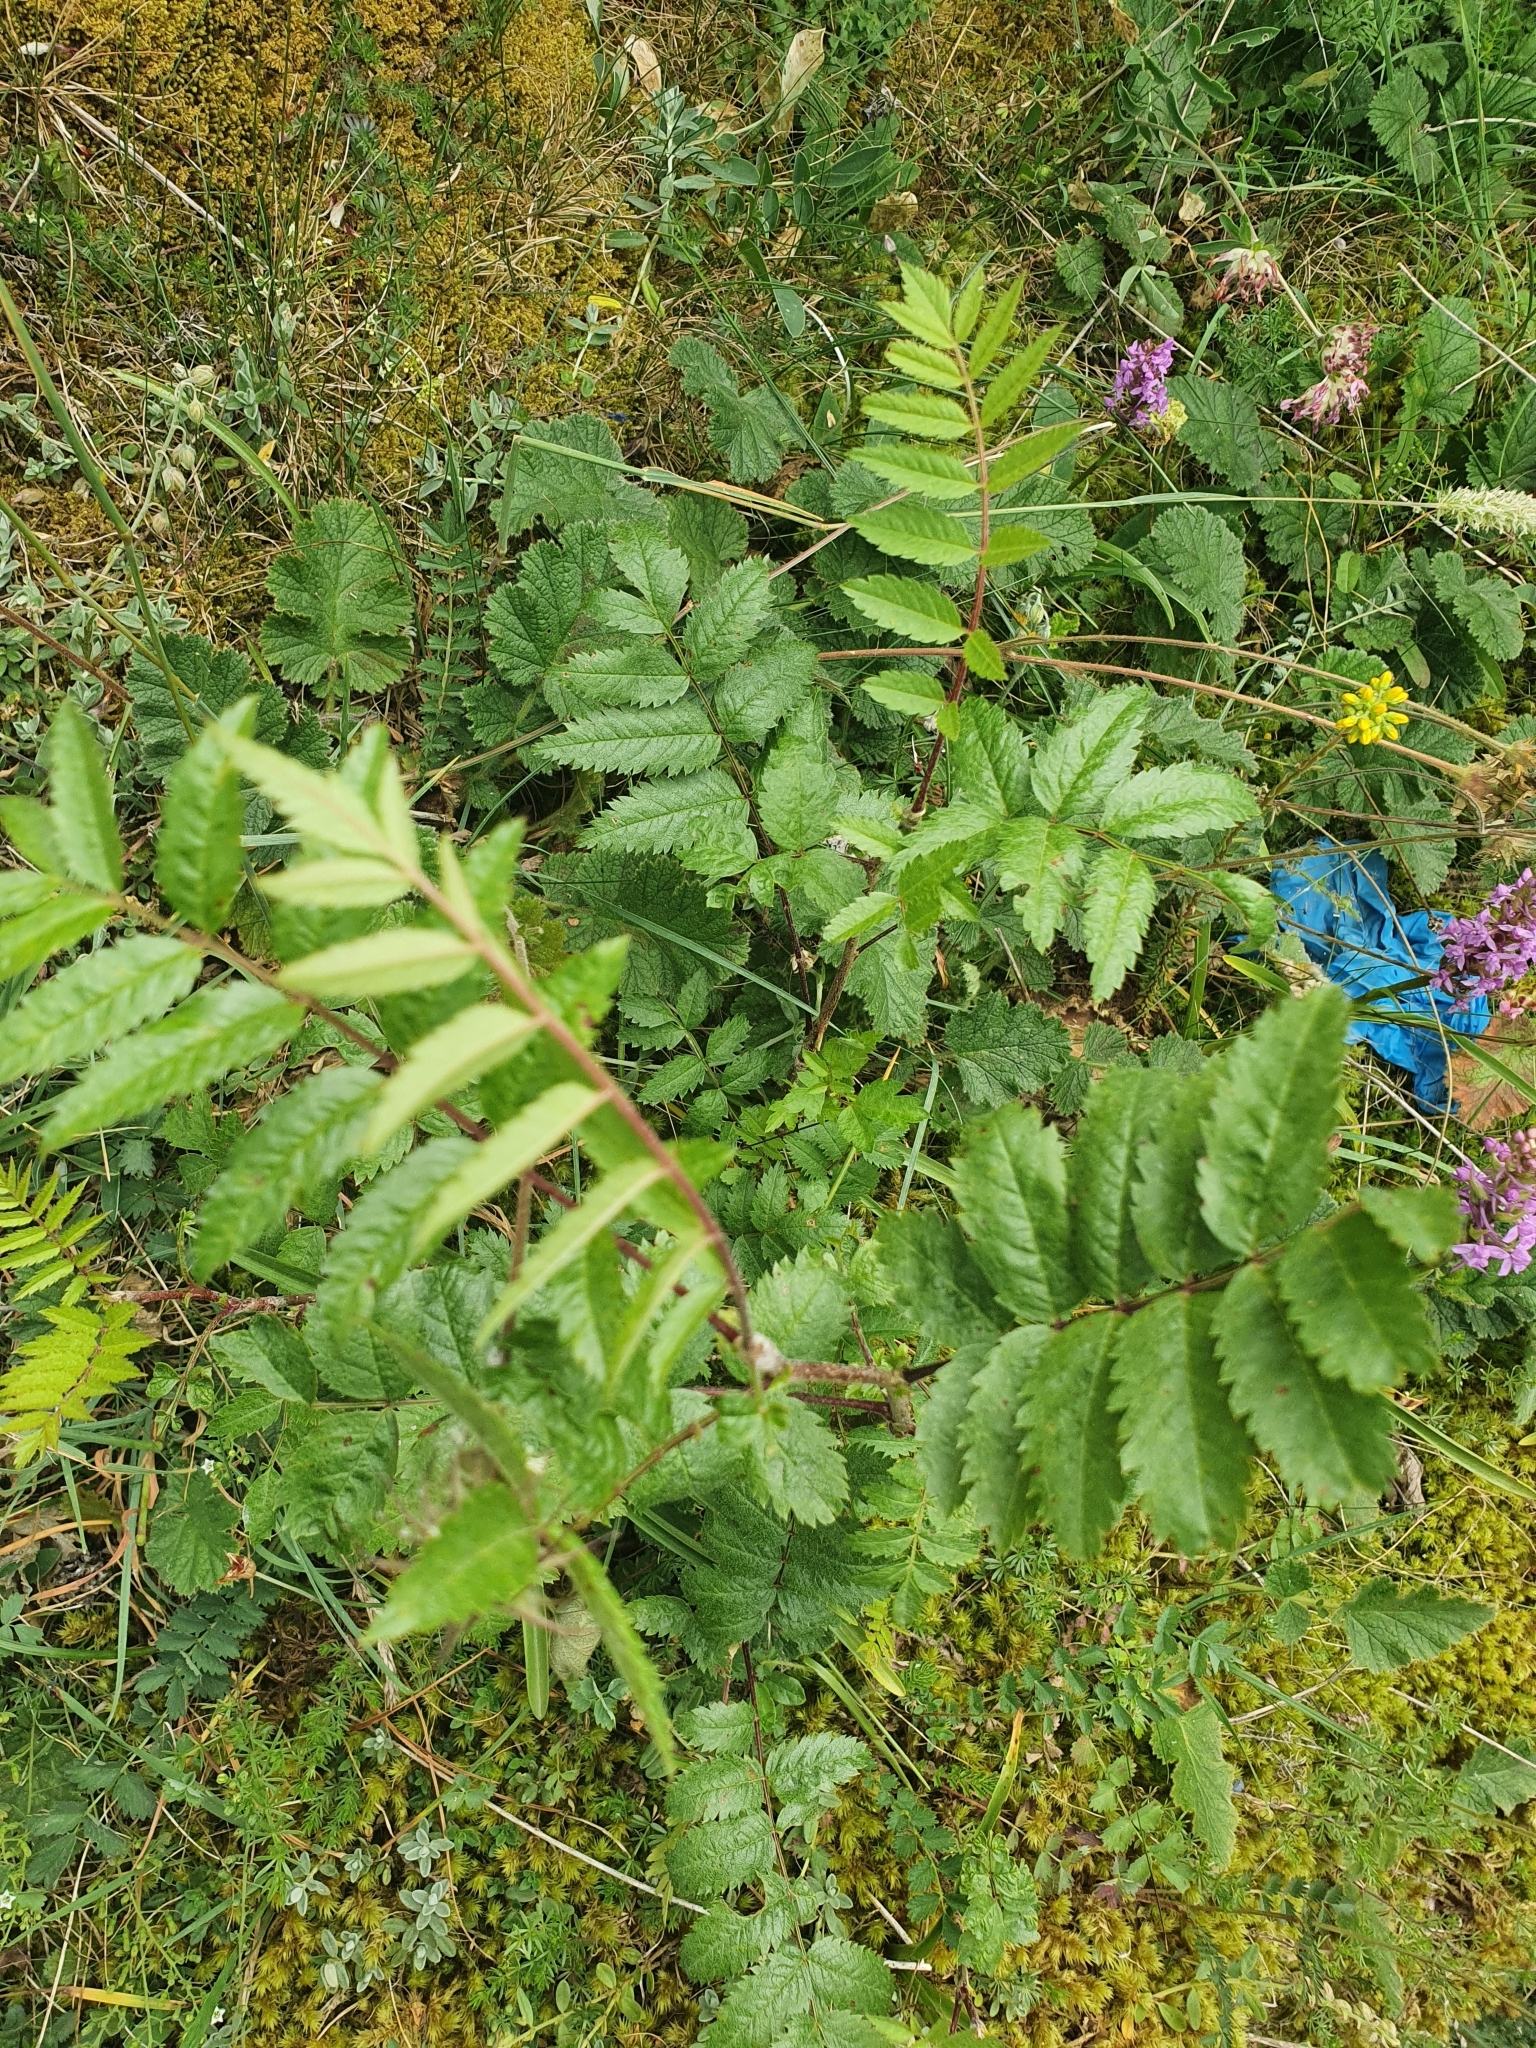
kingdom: Plantae
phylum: Tracheophyta
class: Magnoliopsida
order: Rosales
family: Rosaceae
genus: Sorbus
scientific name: Sorbus aucuparia
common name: Rowan
